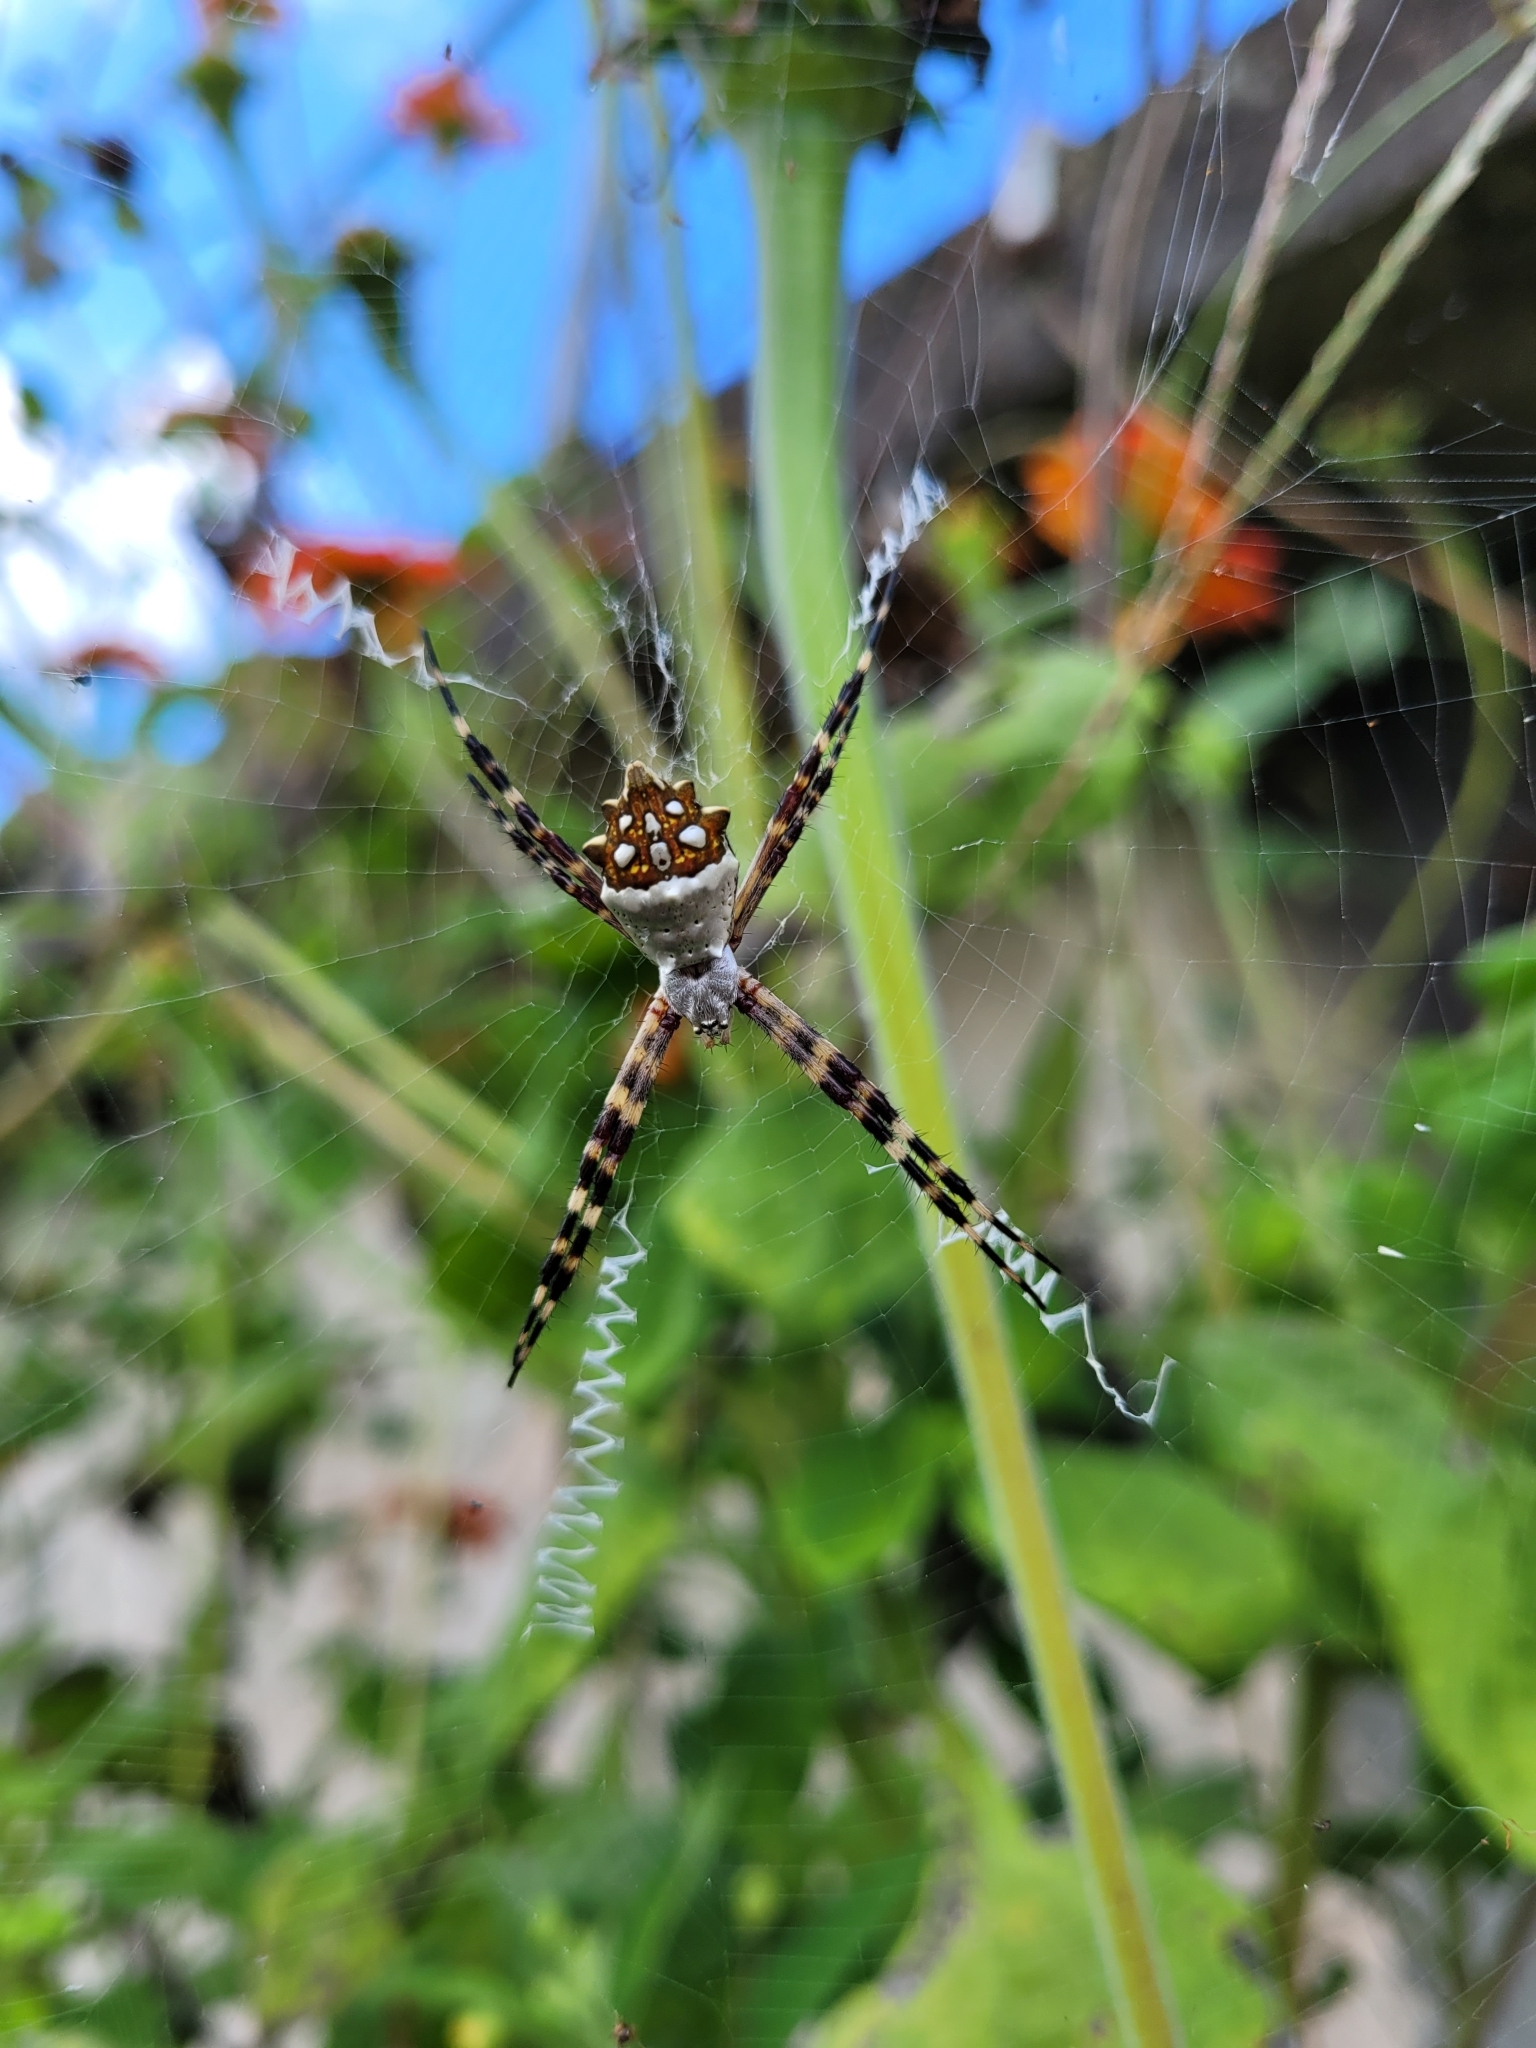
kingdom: Animalia
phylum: Arthropoda
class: Arachnida
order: Araneae
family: Araneidae
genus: Argiope
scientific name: Argiope argentata
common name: Orb weavers
